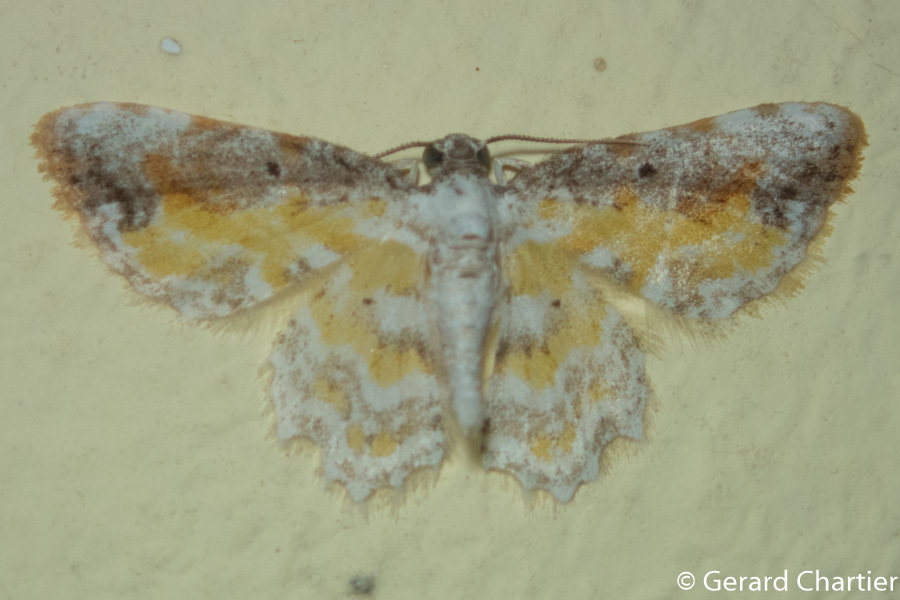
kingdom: Animalia
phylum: Arthropoda
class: Insecta
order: Lepidoptera
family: Geometridae
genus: Acolutha
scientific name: Acolutha pictaria
